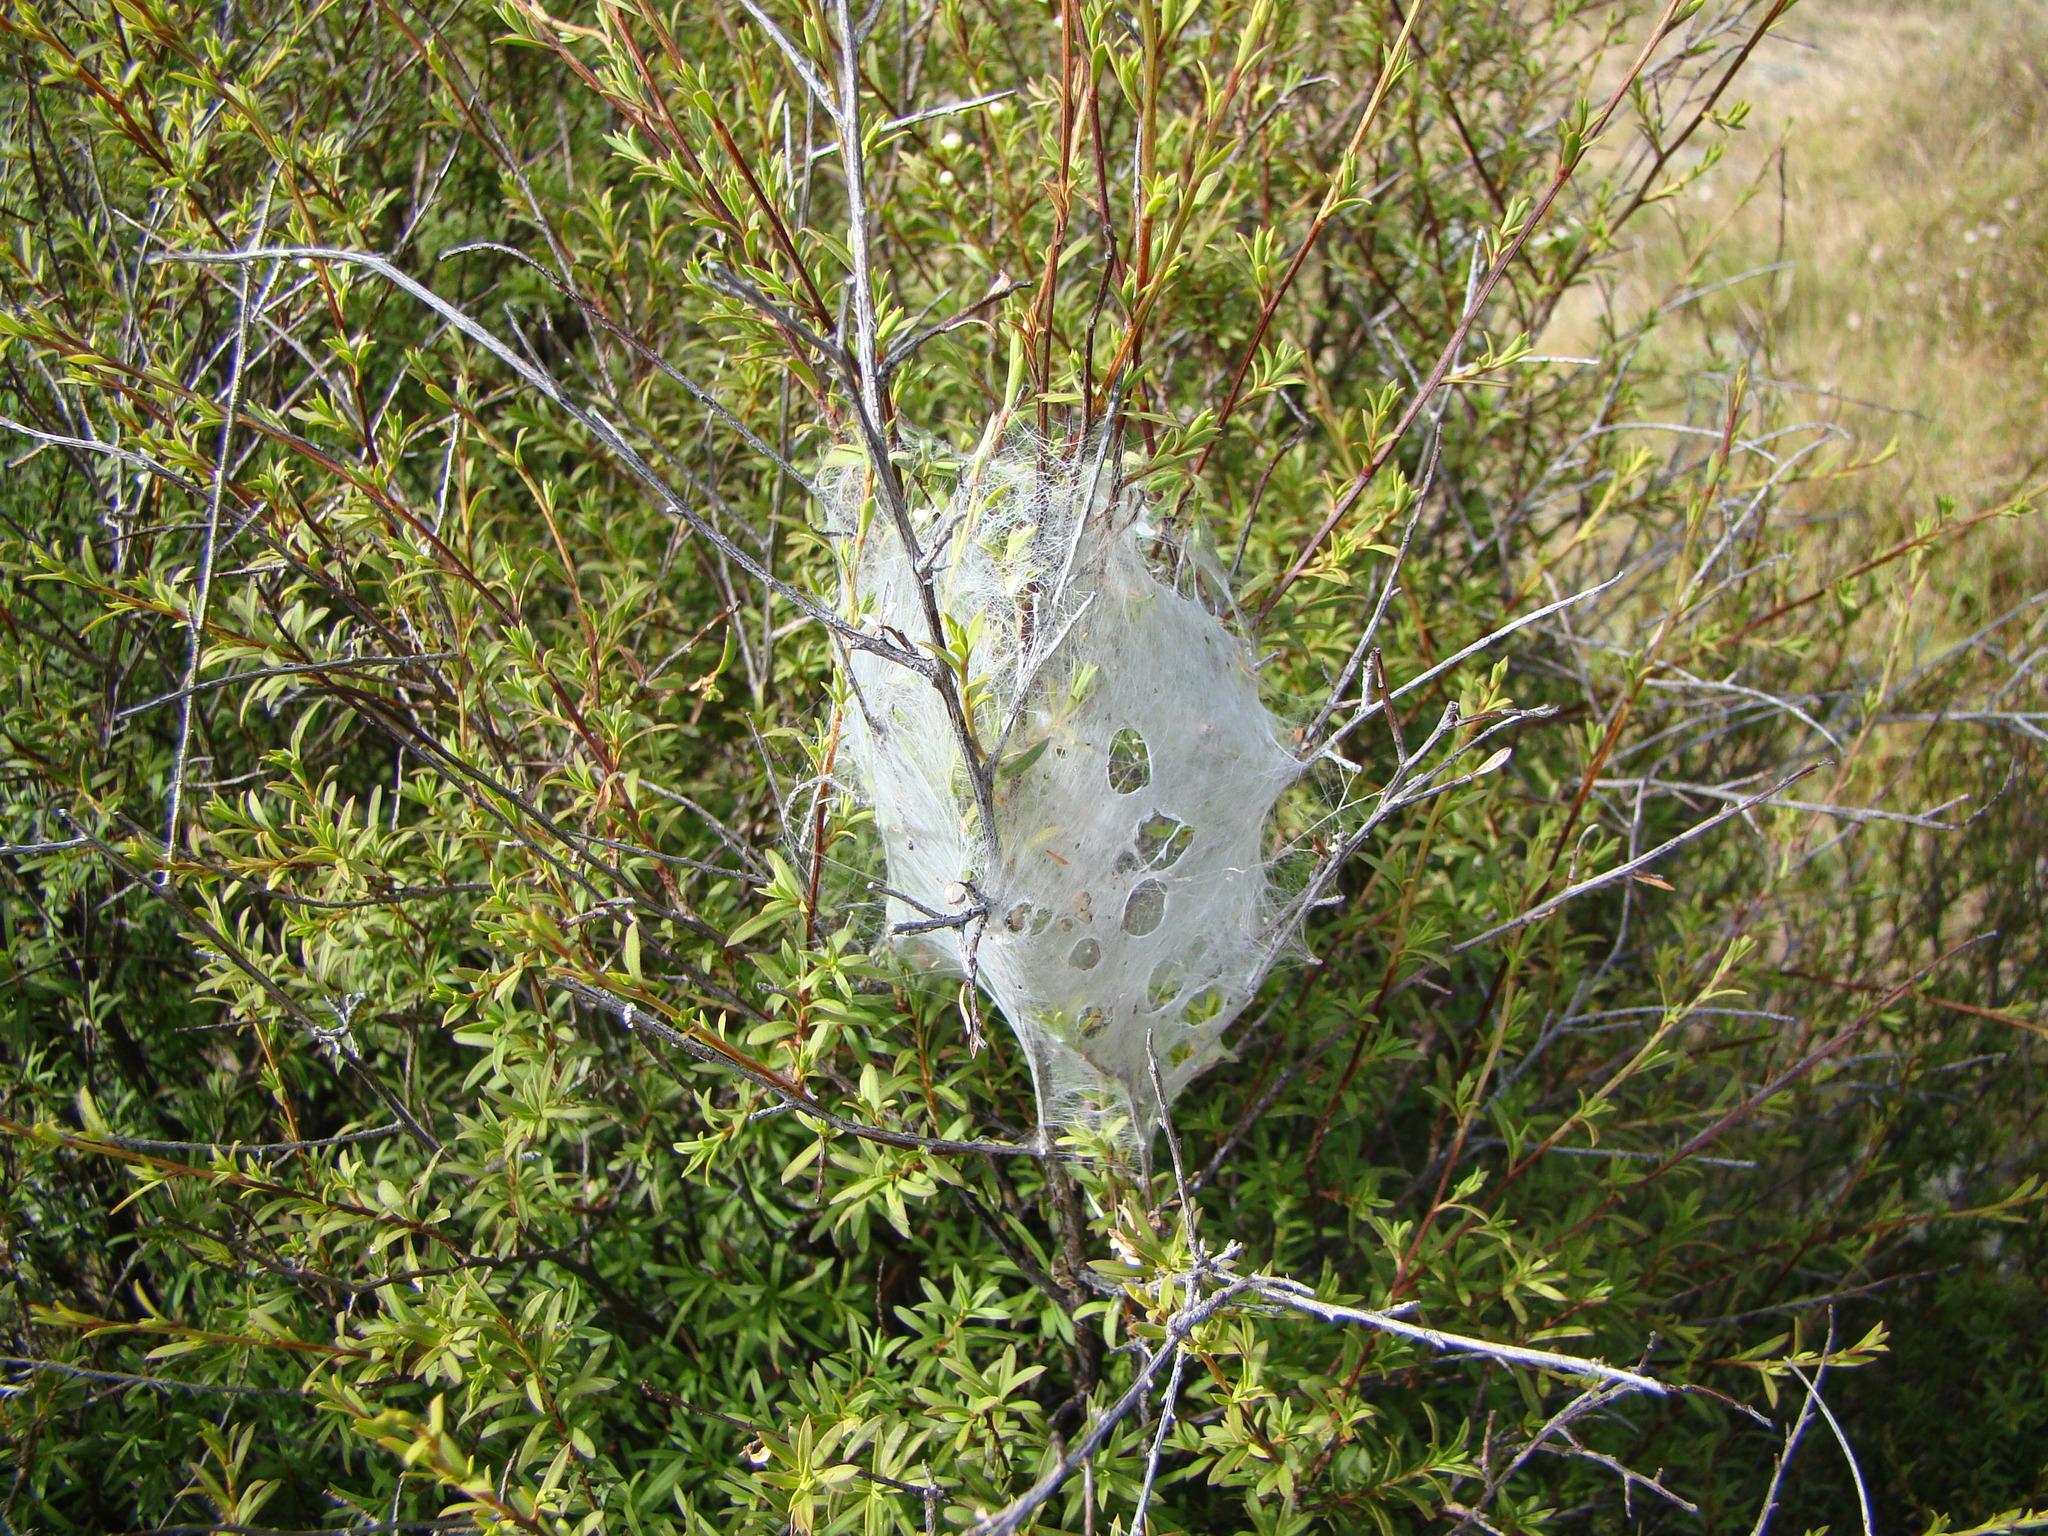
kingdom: Animalia
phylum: Arthropoda
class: Arachnida
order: Araneae
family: Pisauridae
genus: Dolomedes
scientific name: Dolomedes minor
